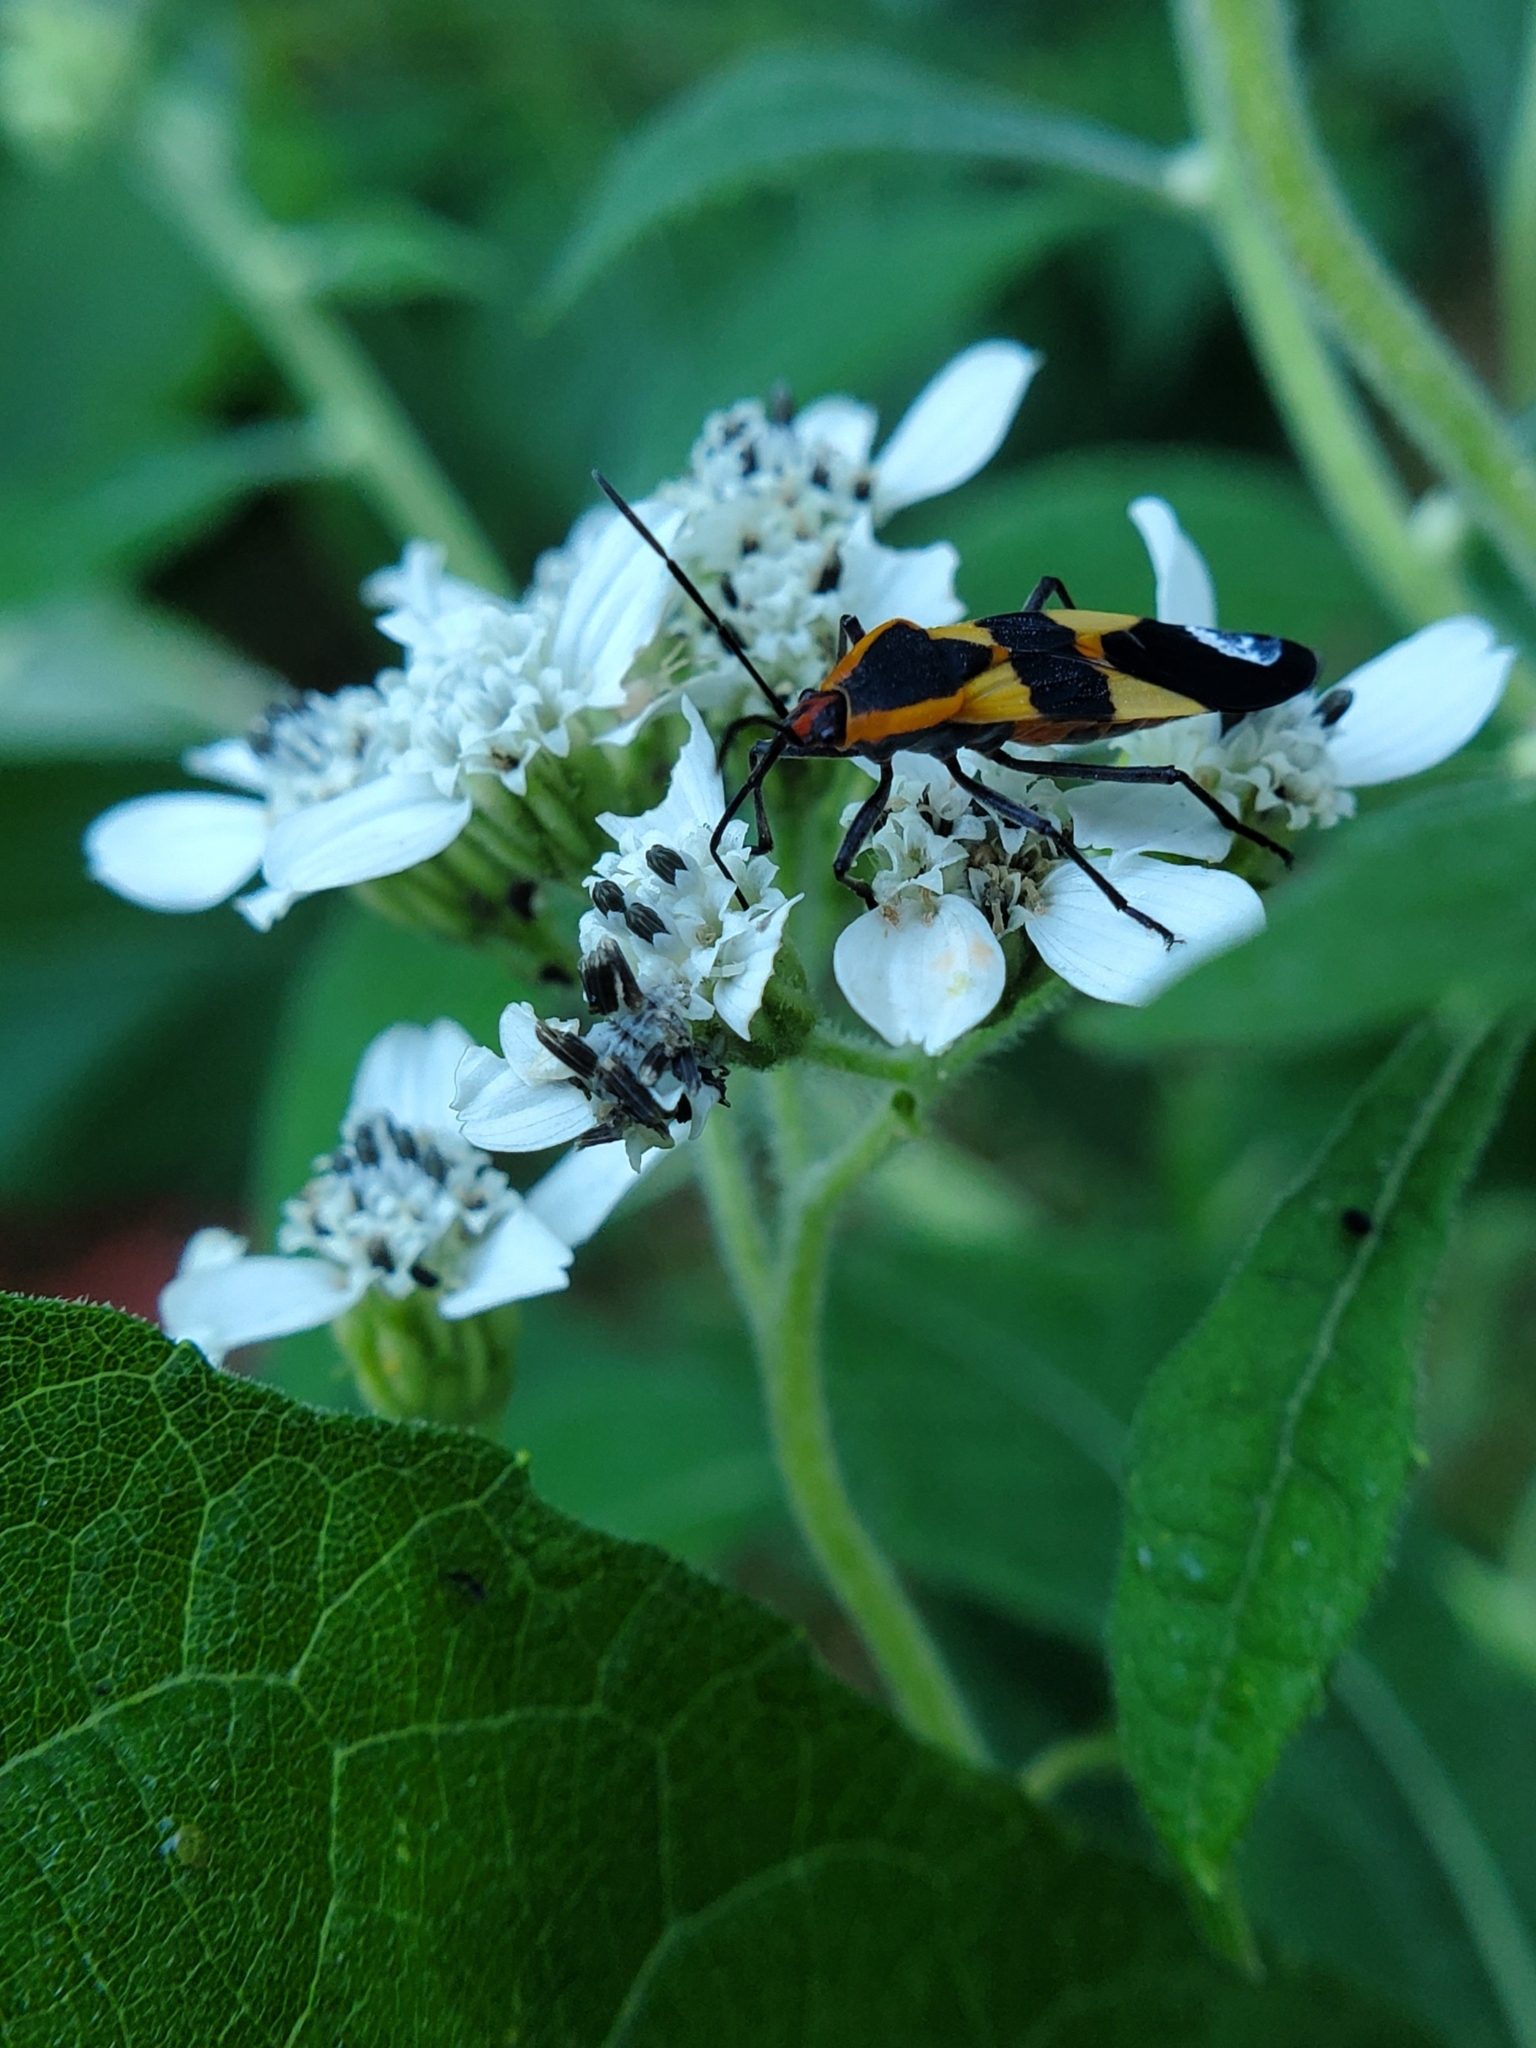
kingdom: Animalia
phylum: Arthropoda
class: Insecta
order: Hemiptera
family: Lygaeidae
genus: Oncopeltus
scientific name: Oncopeltus fasciatus
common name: Large milkweed bug
